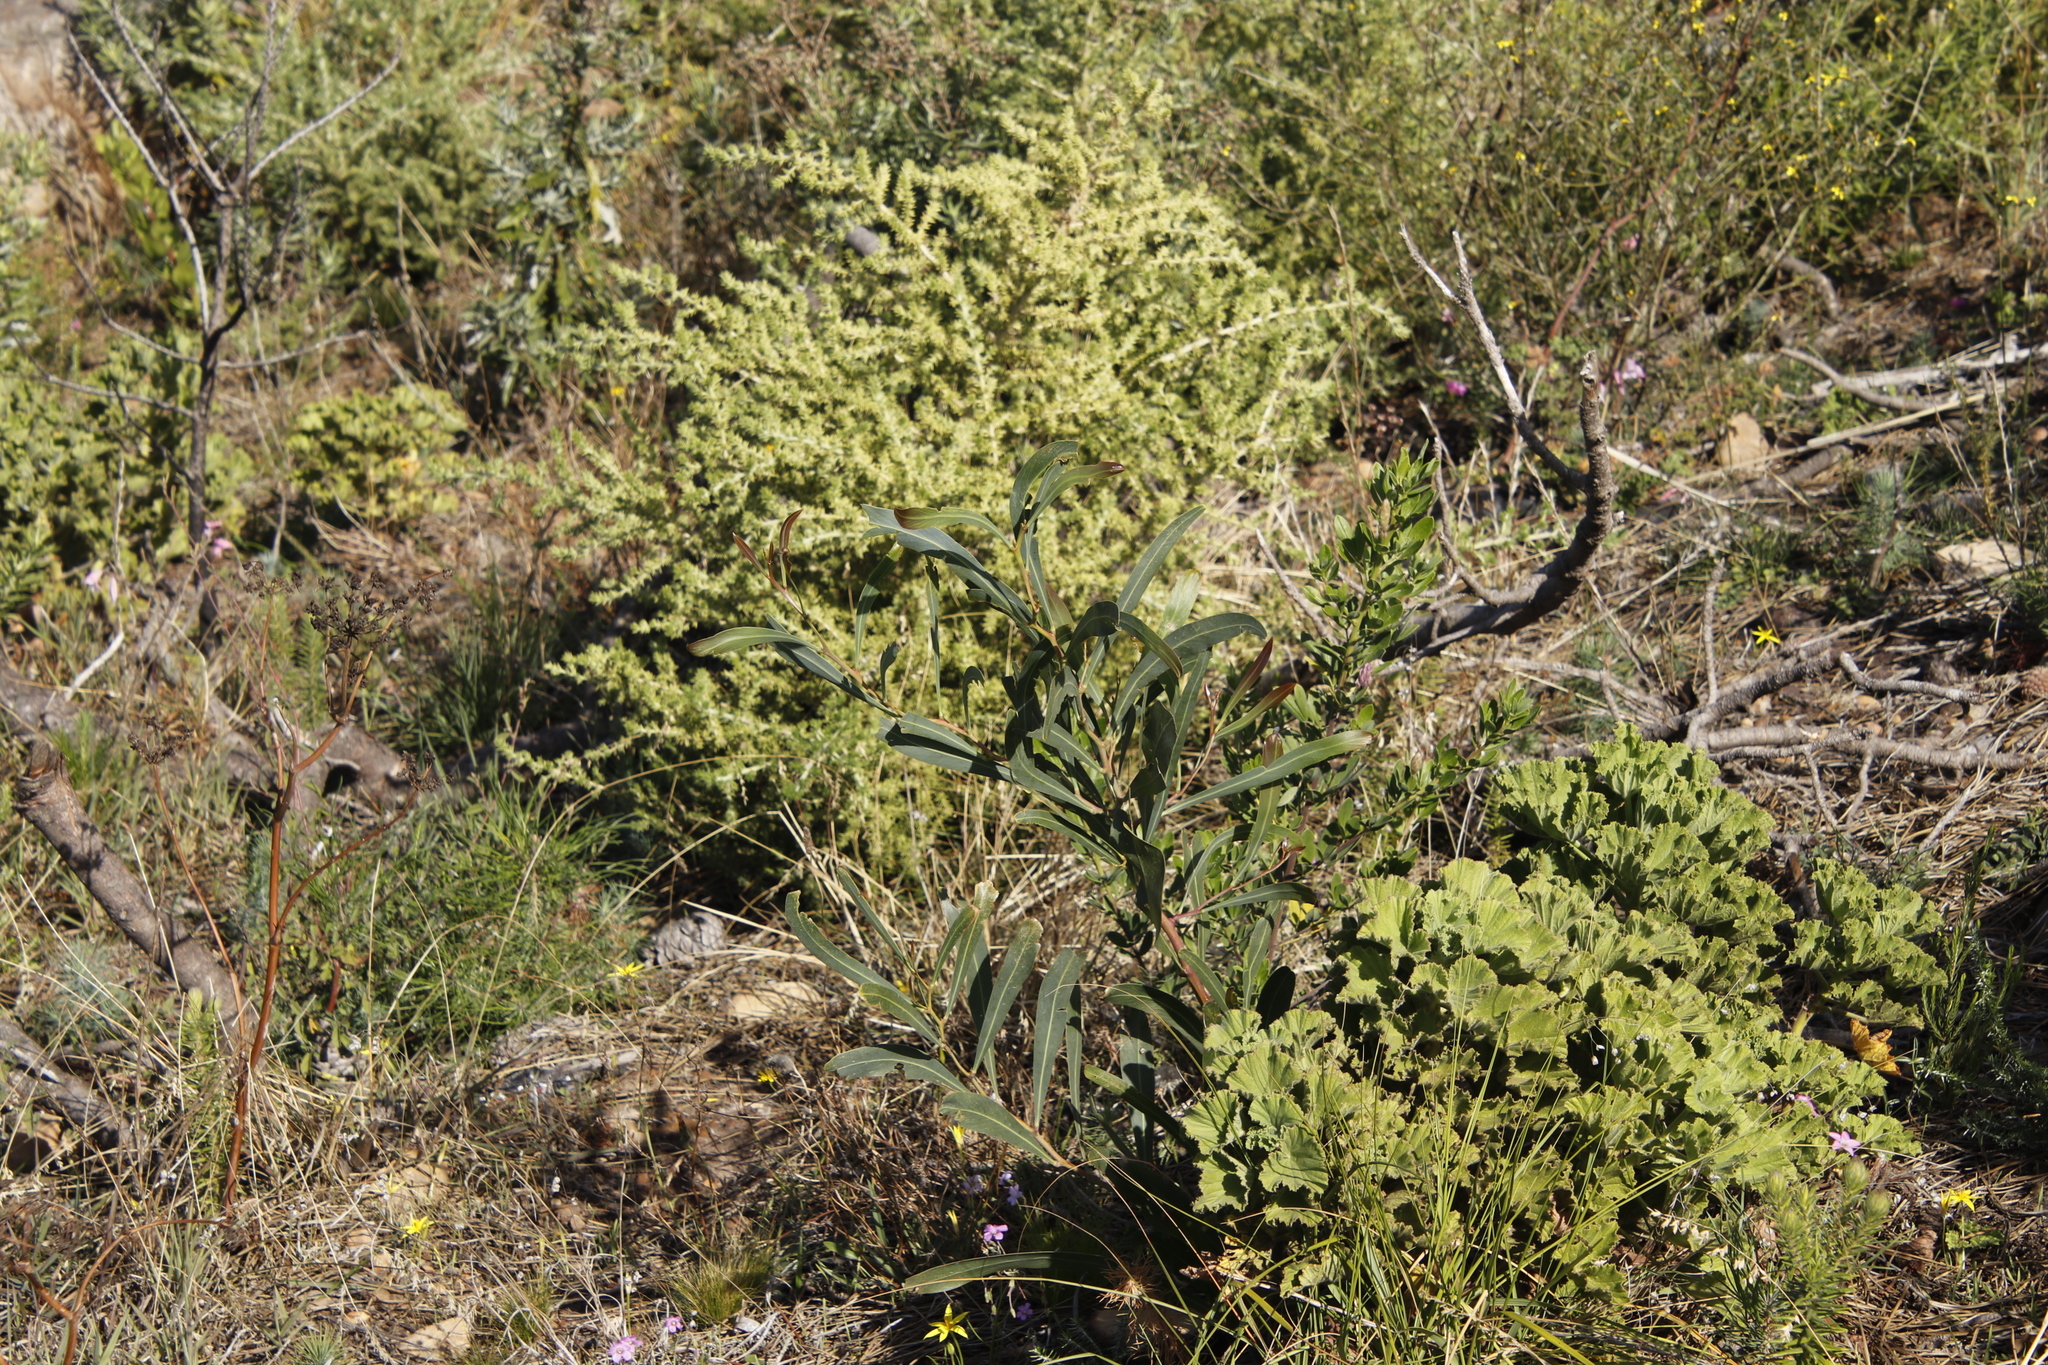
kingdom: Plantae
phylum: Tracheophyta
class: Magnoliopsida
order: Fabales
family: Fabaceae
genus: Acacia
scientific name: Acacia saligna
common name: Orange wattle
